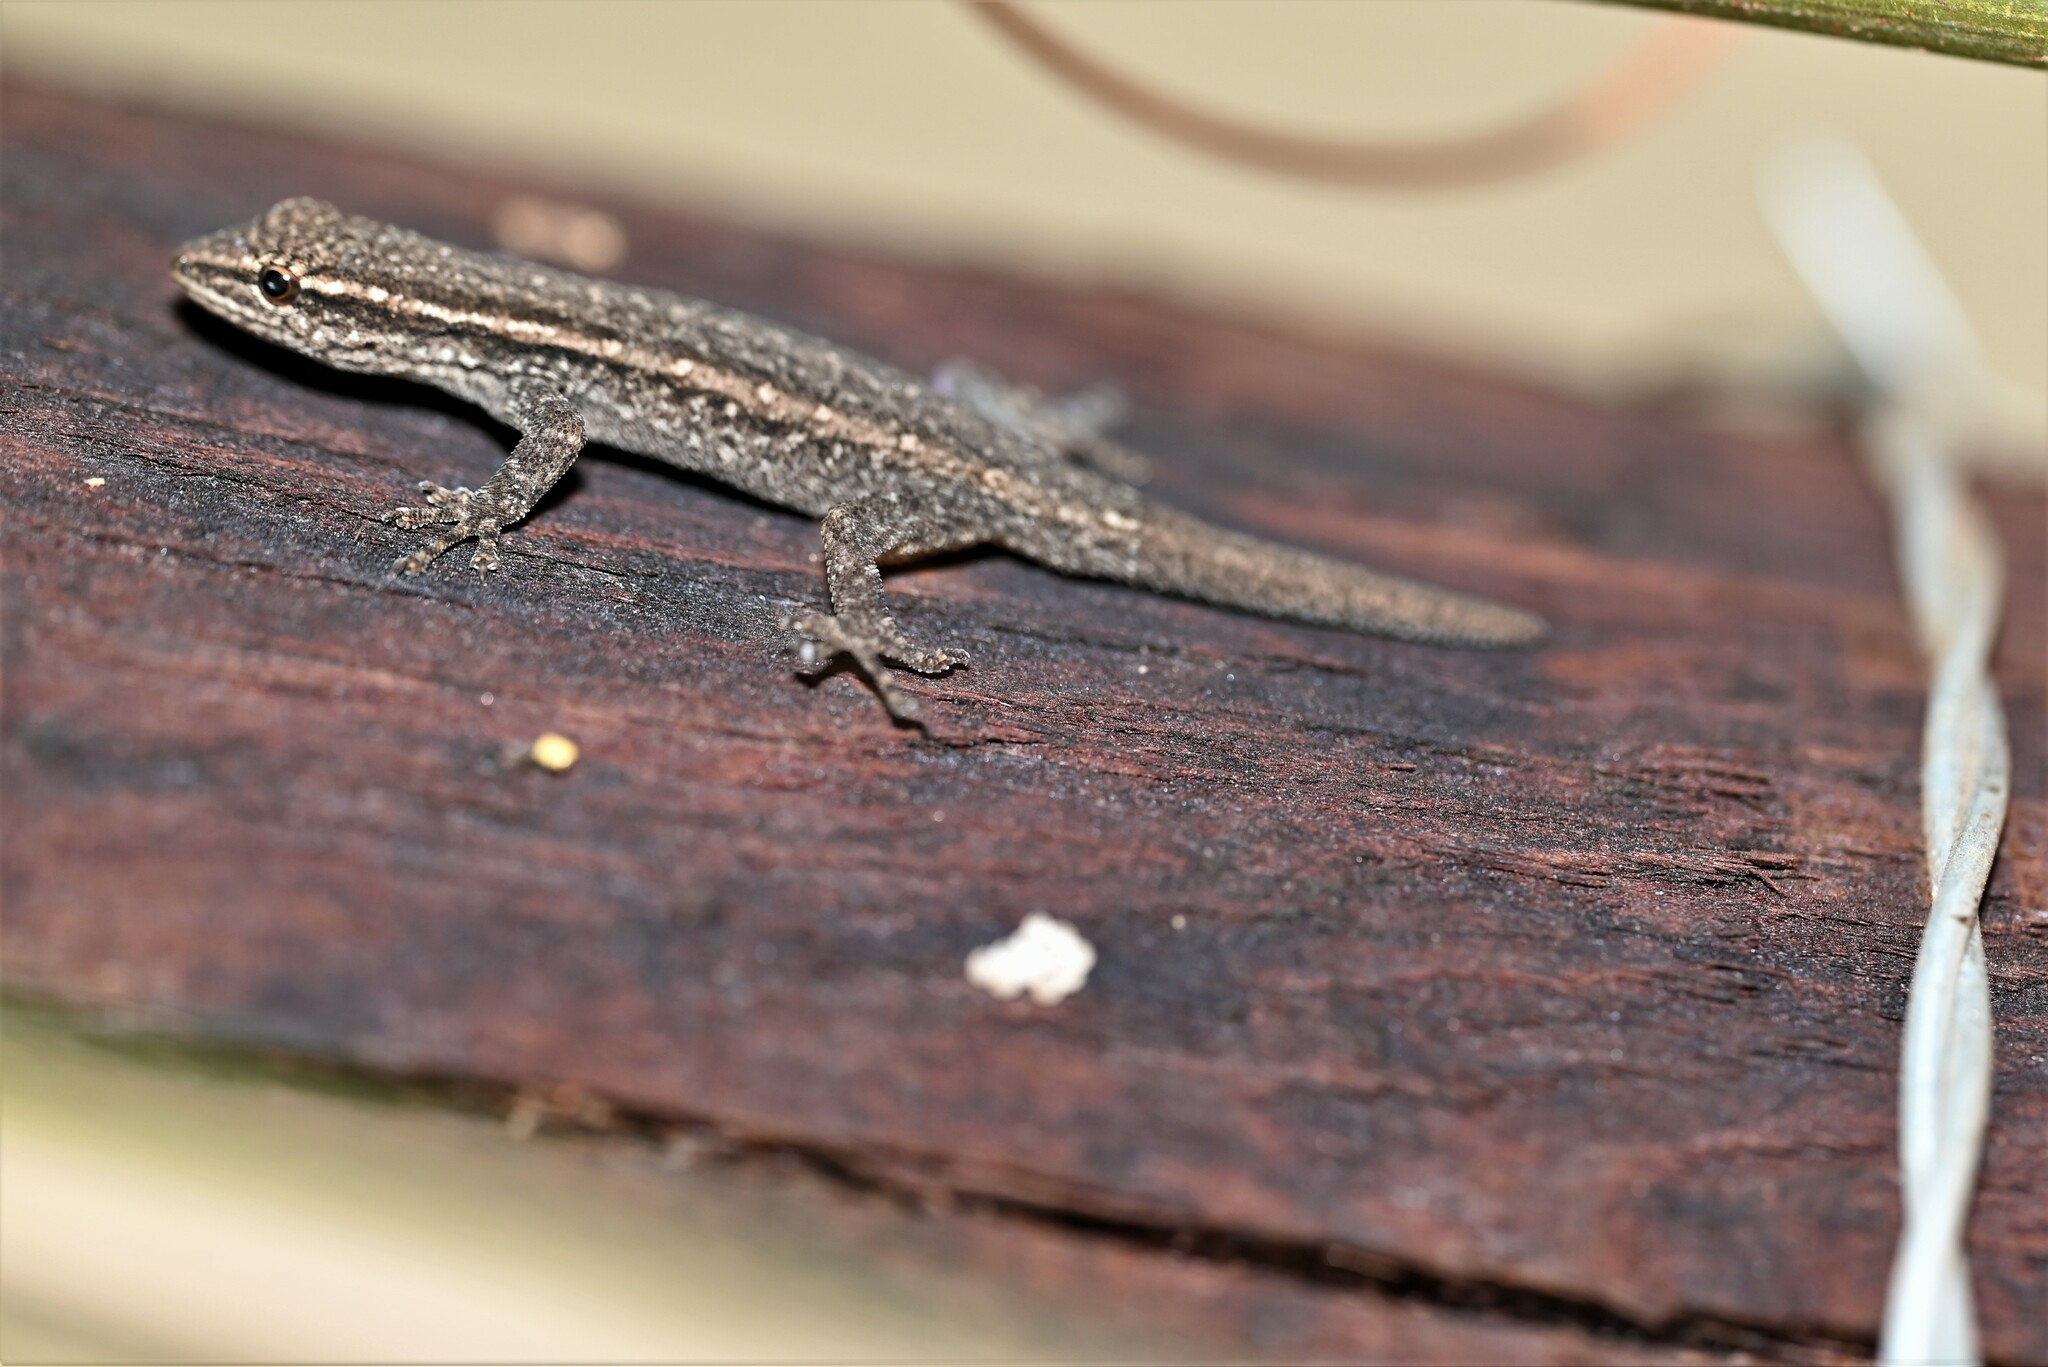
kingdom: Animalia
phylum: Chordata
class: Squamata
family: Gekkonidae
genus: Lygodactylus
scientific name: Lygodactylus capensis
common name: Cape dwarf gecko
